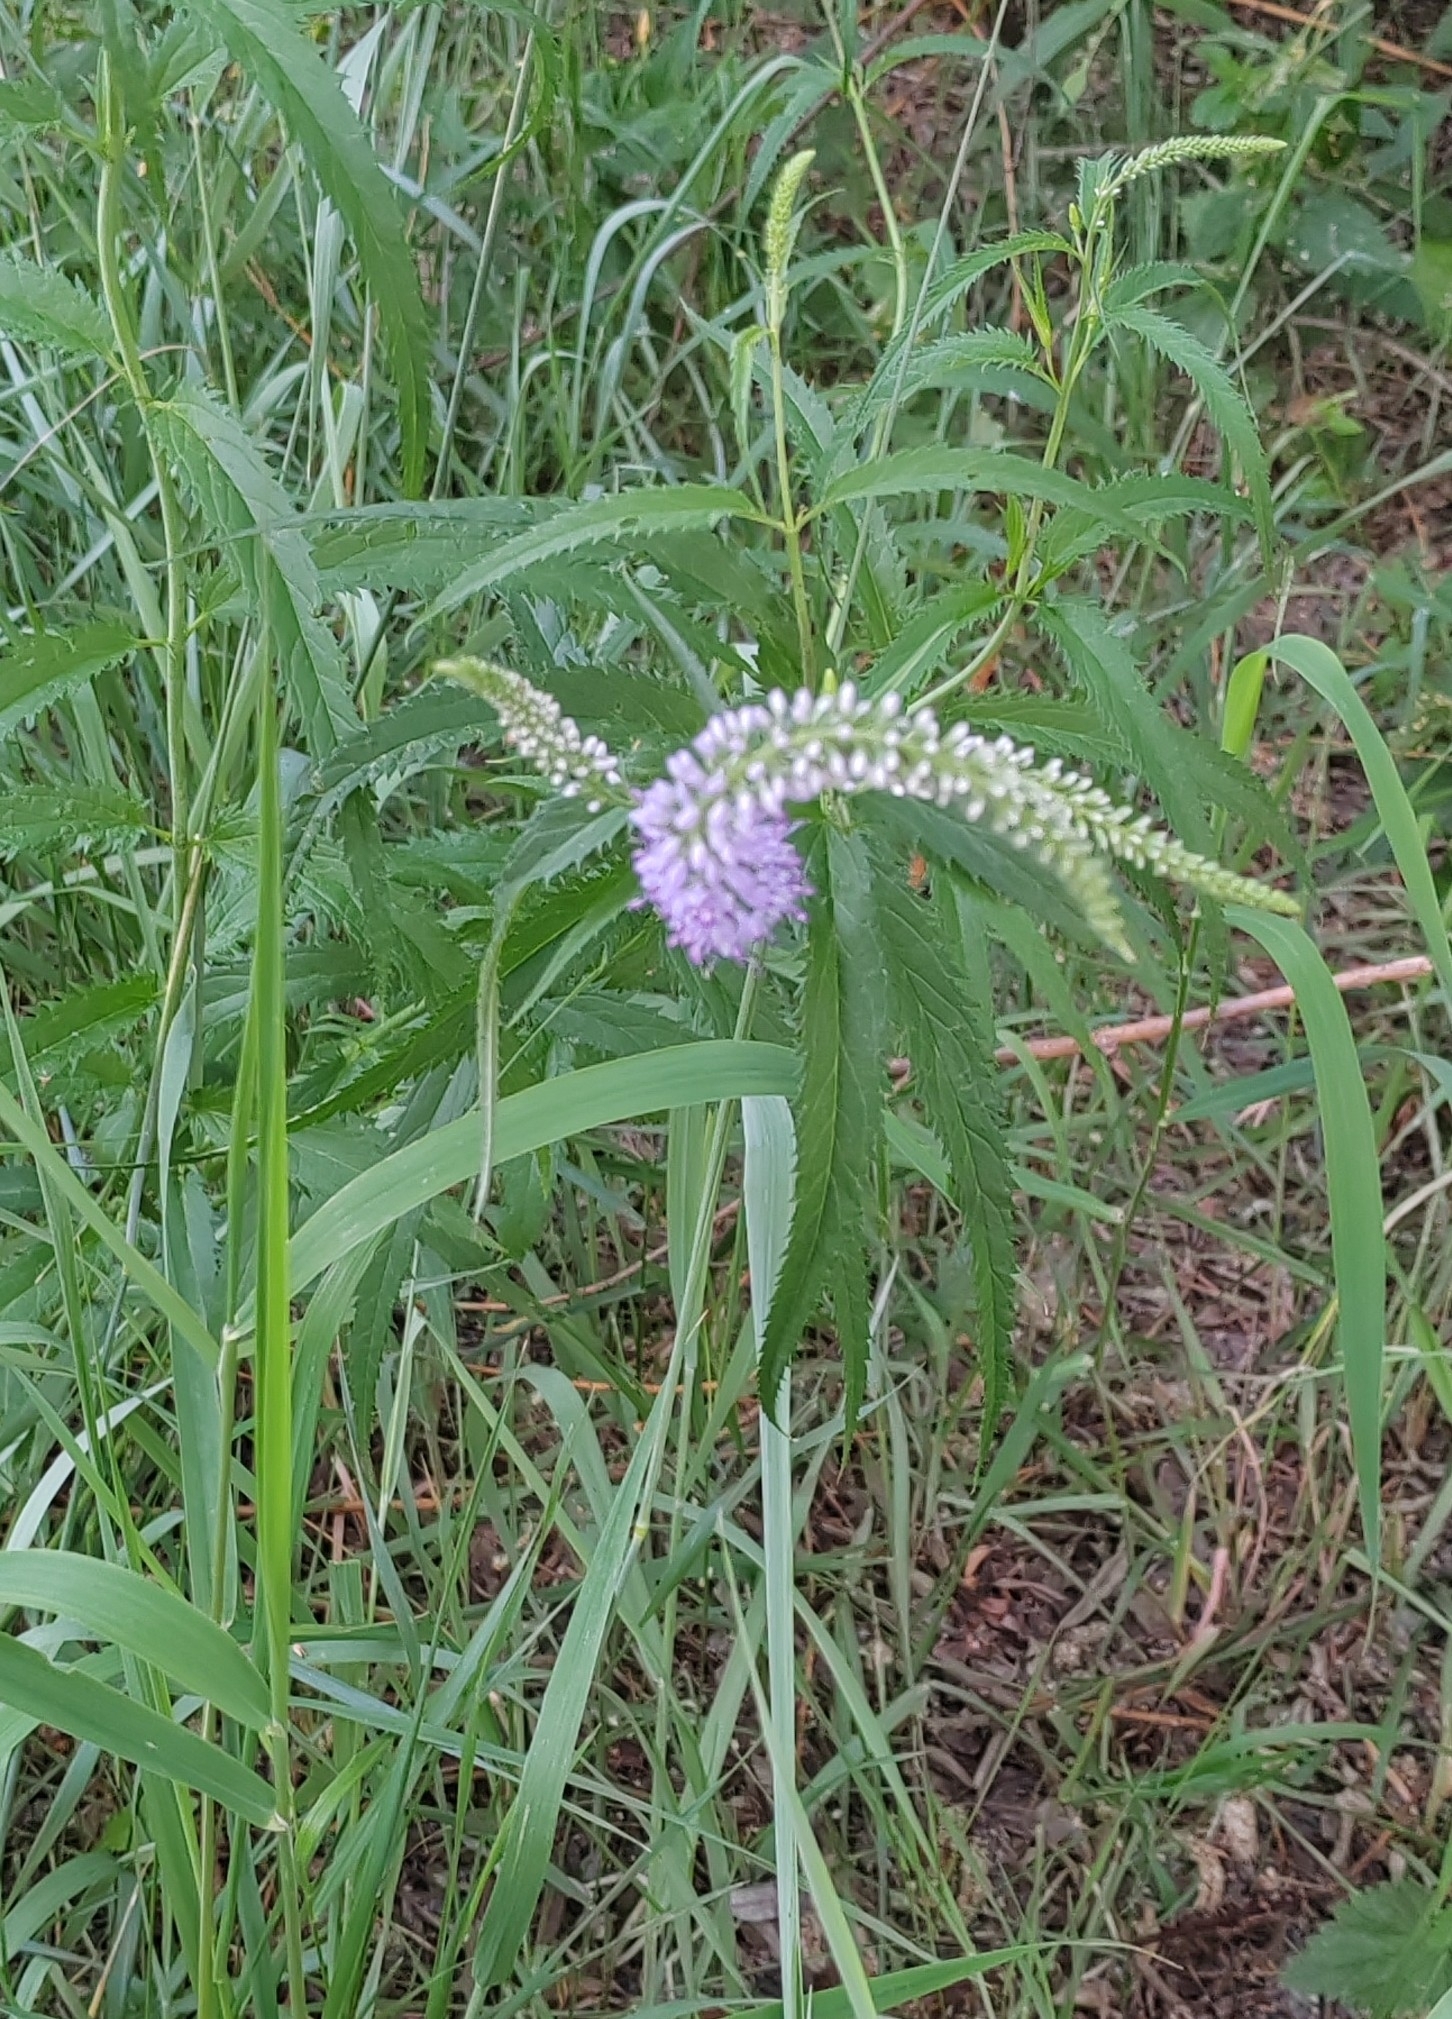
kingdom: Plantae
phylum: Tracheophyta
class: Magnoliopsida
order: Lamiales
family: Plantaginaceae
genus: Veronica
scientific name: Veronica longifolia
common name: Garden speedwell
